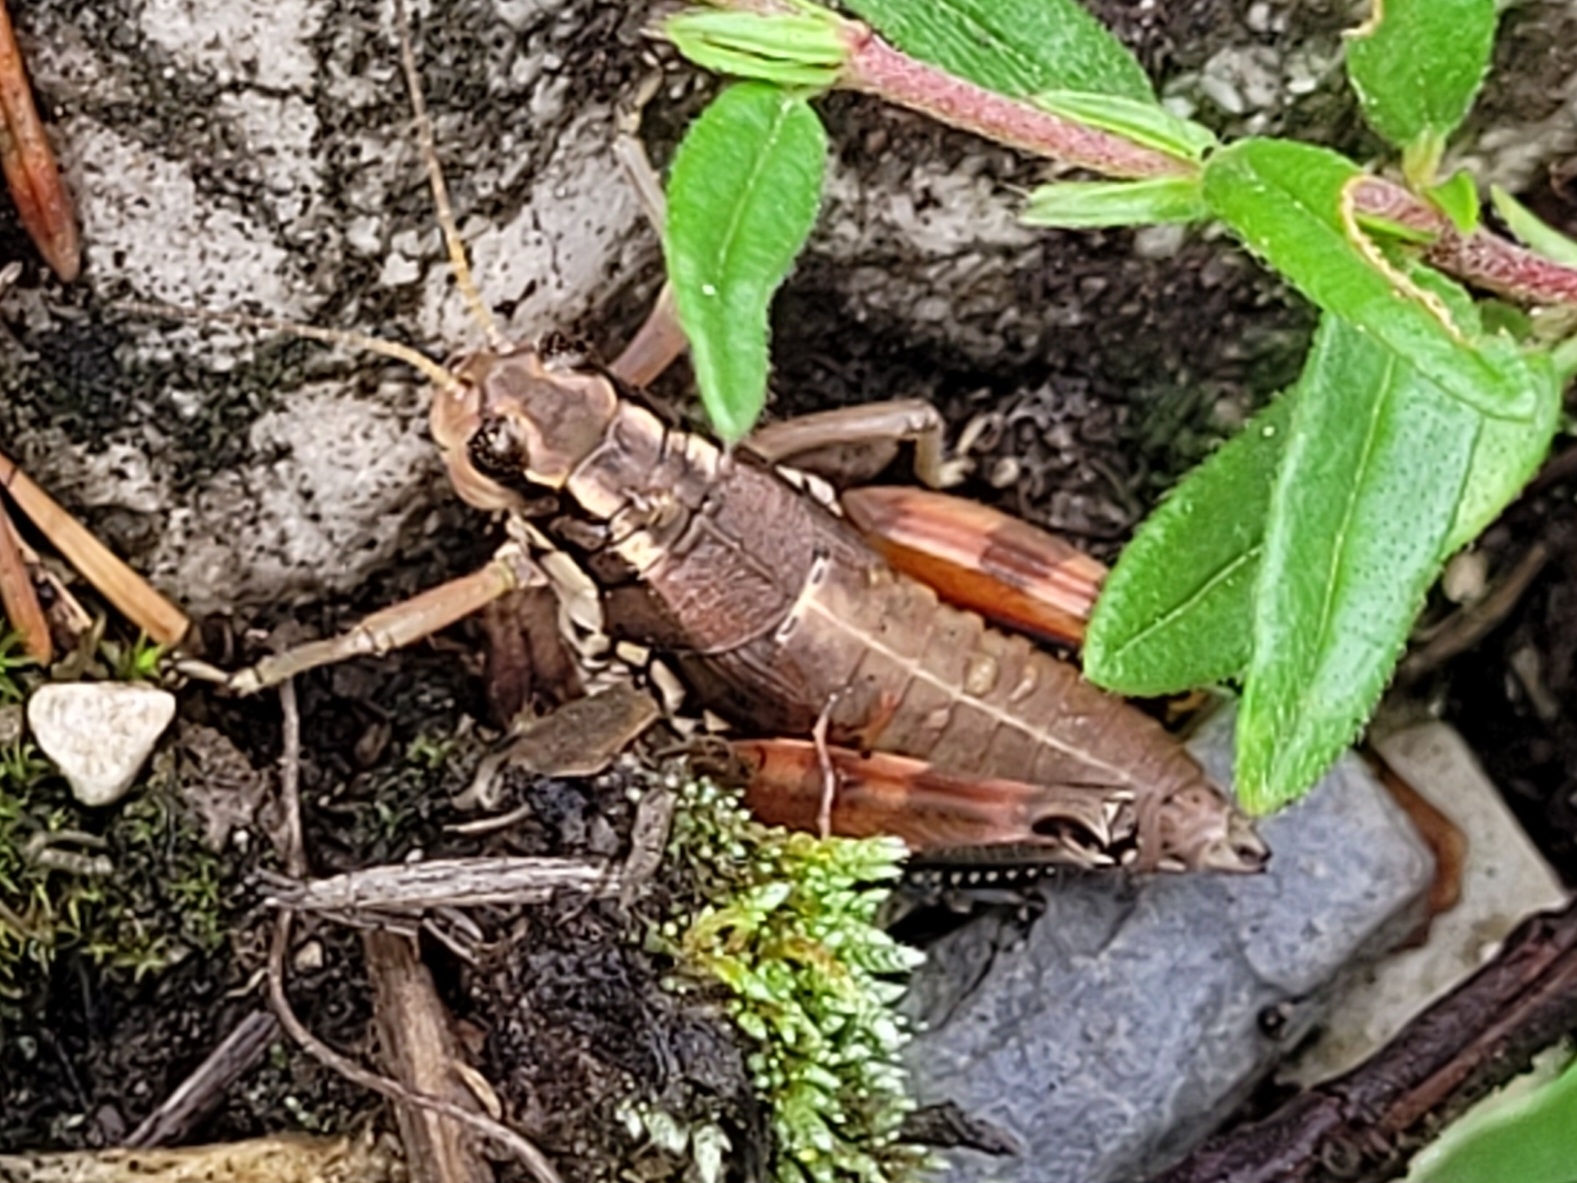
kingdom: Animalia
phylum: Arthropoda
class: Insecta
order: Orthoptera
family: Acrididae
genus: Podisma
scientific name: Podisma pedestris
